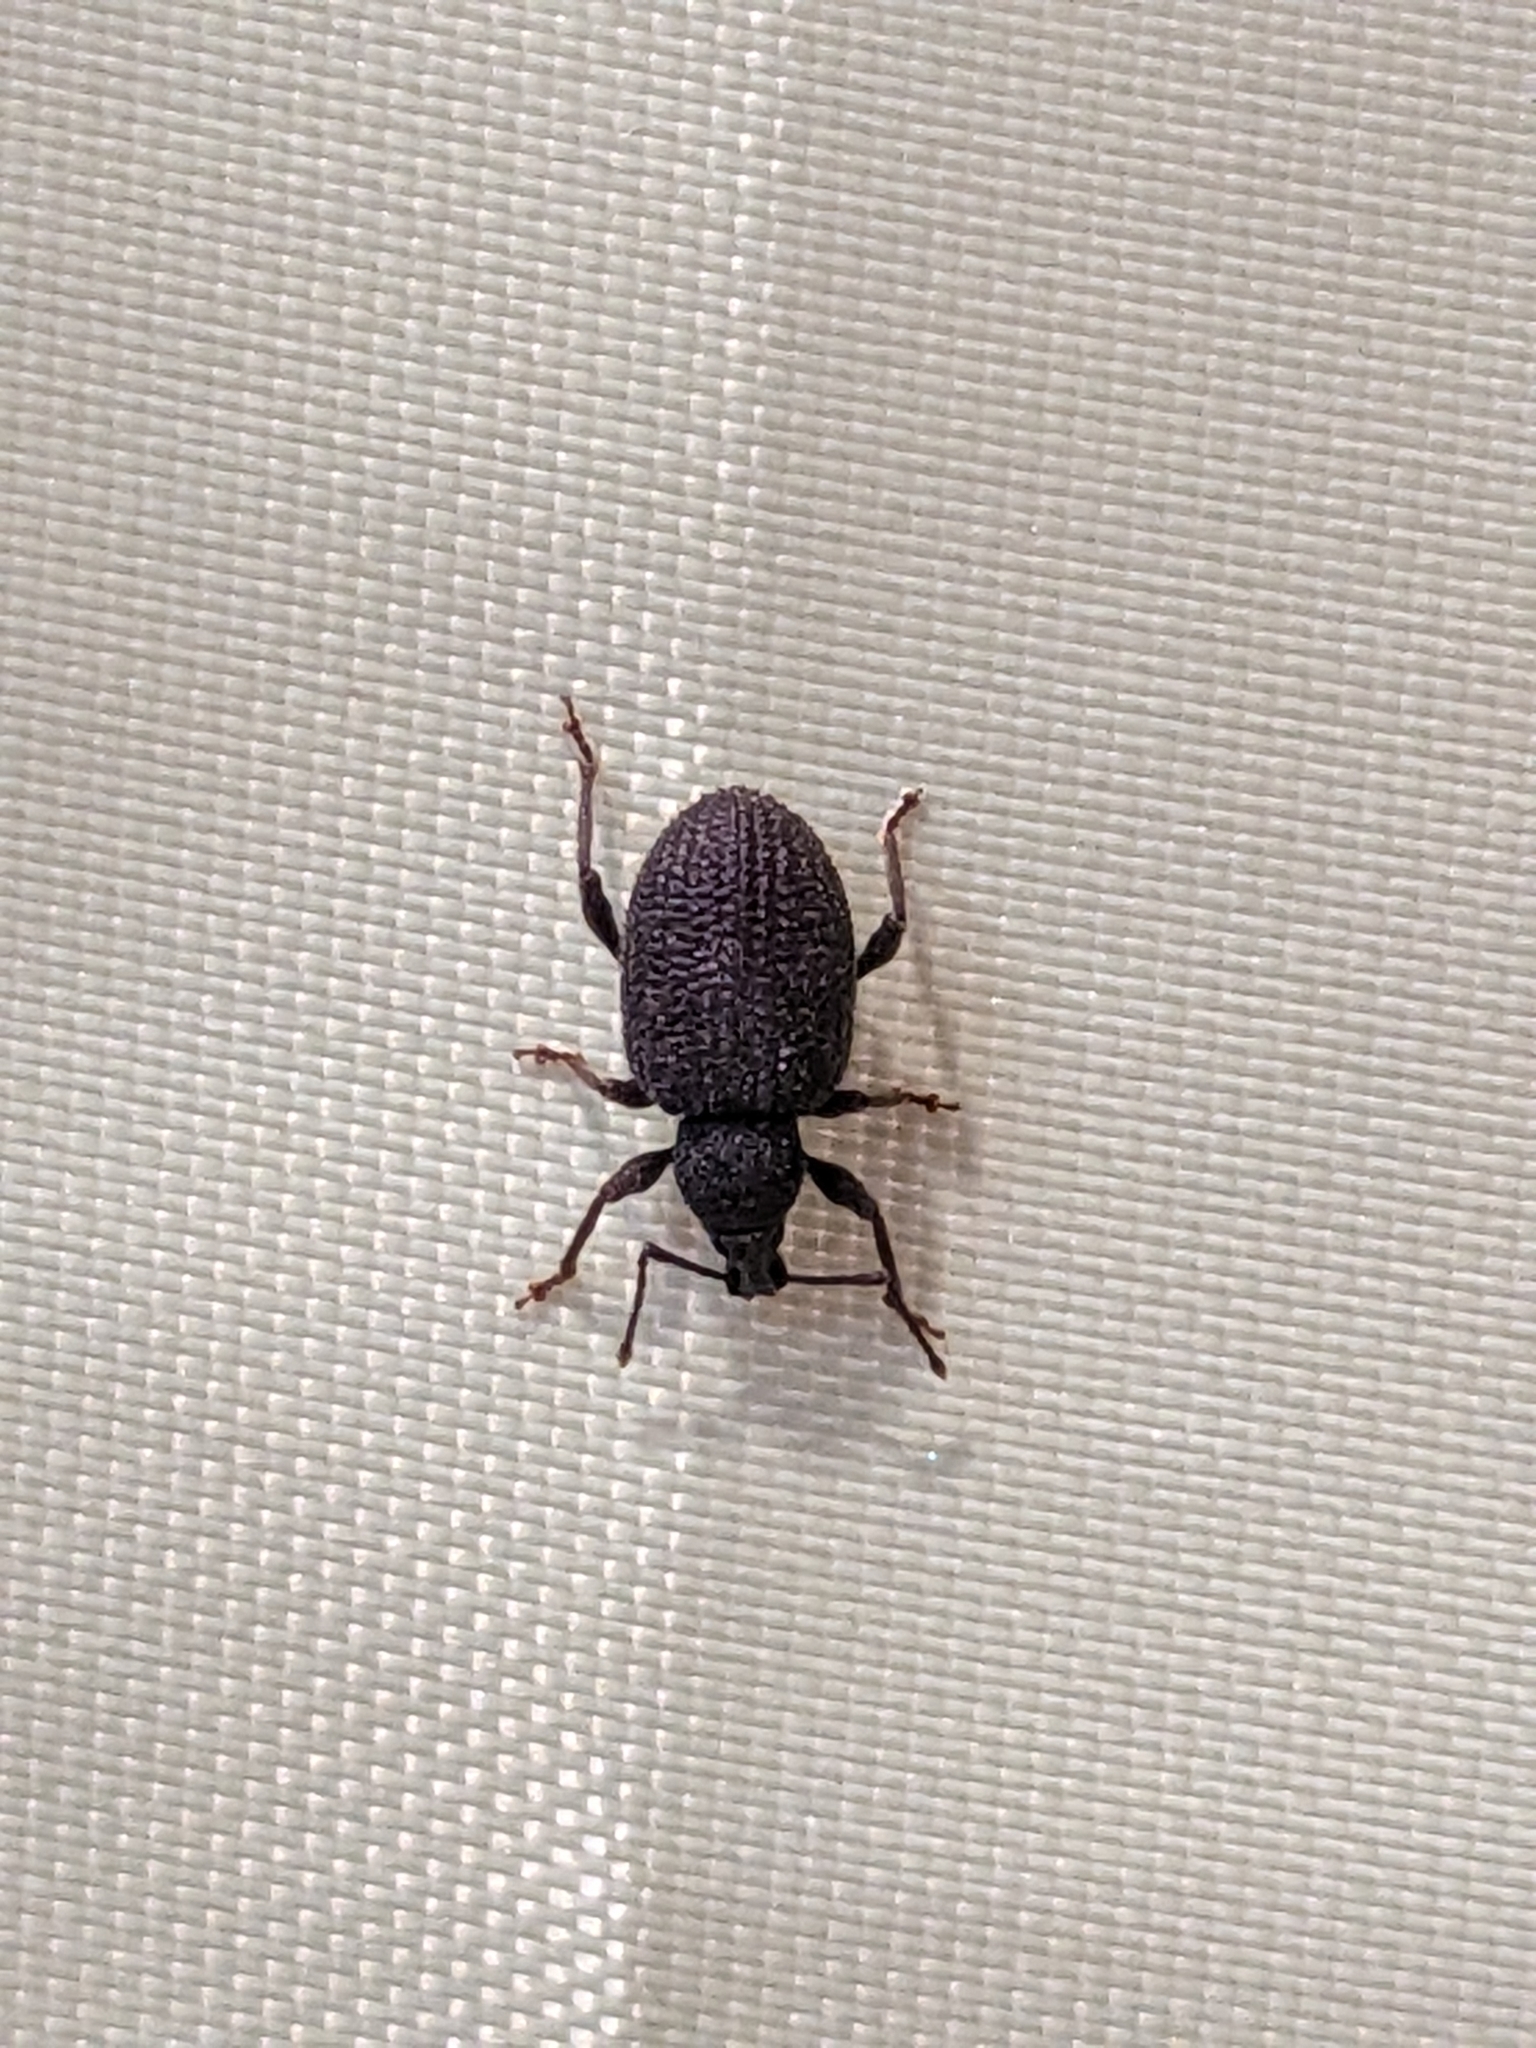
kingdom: Animalia
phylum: Arthropoda
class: Insecta
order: Coleoptera
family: Curculionidae
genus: Otiorhynchus
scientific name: Otiorhynchus rugosostriatus
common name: Weevil
